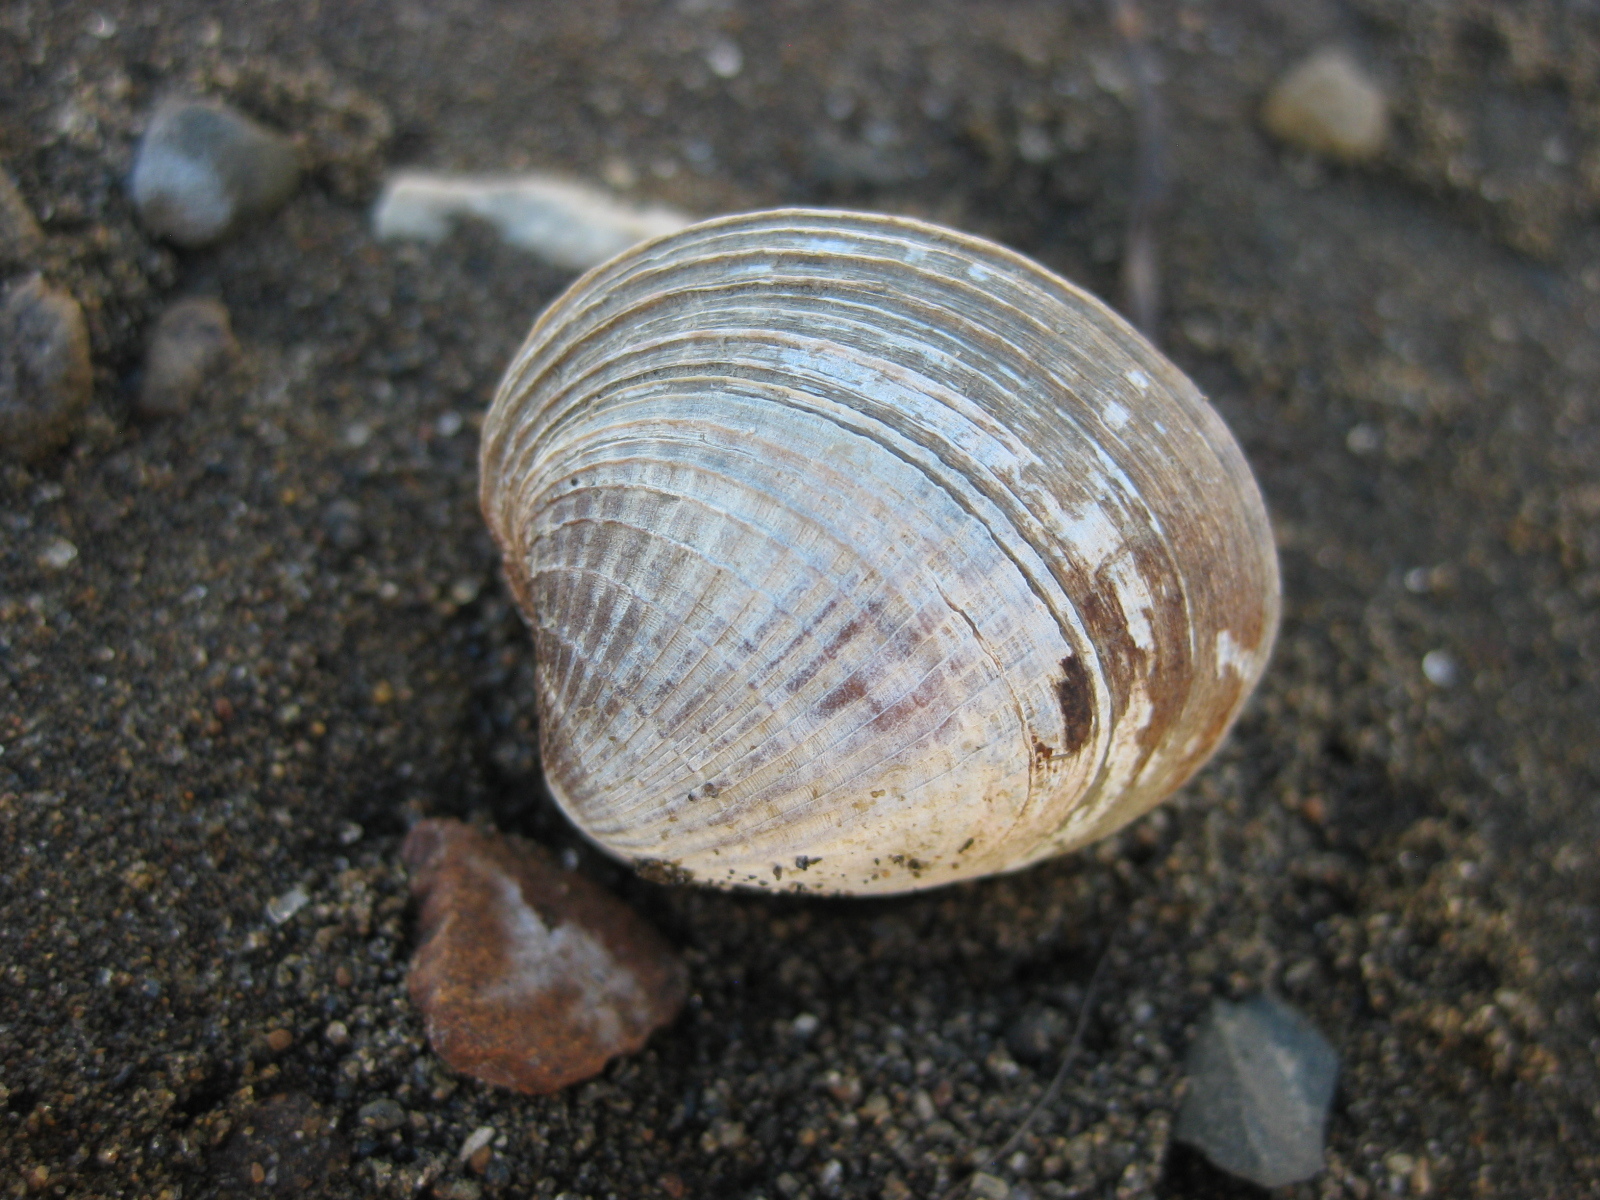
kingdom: Animalia
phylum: Mollusca
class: Bivalvia
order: Venerida
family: Veneridae
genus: Austrovenus
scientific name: Austrovenus stutchburyi
